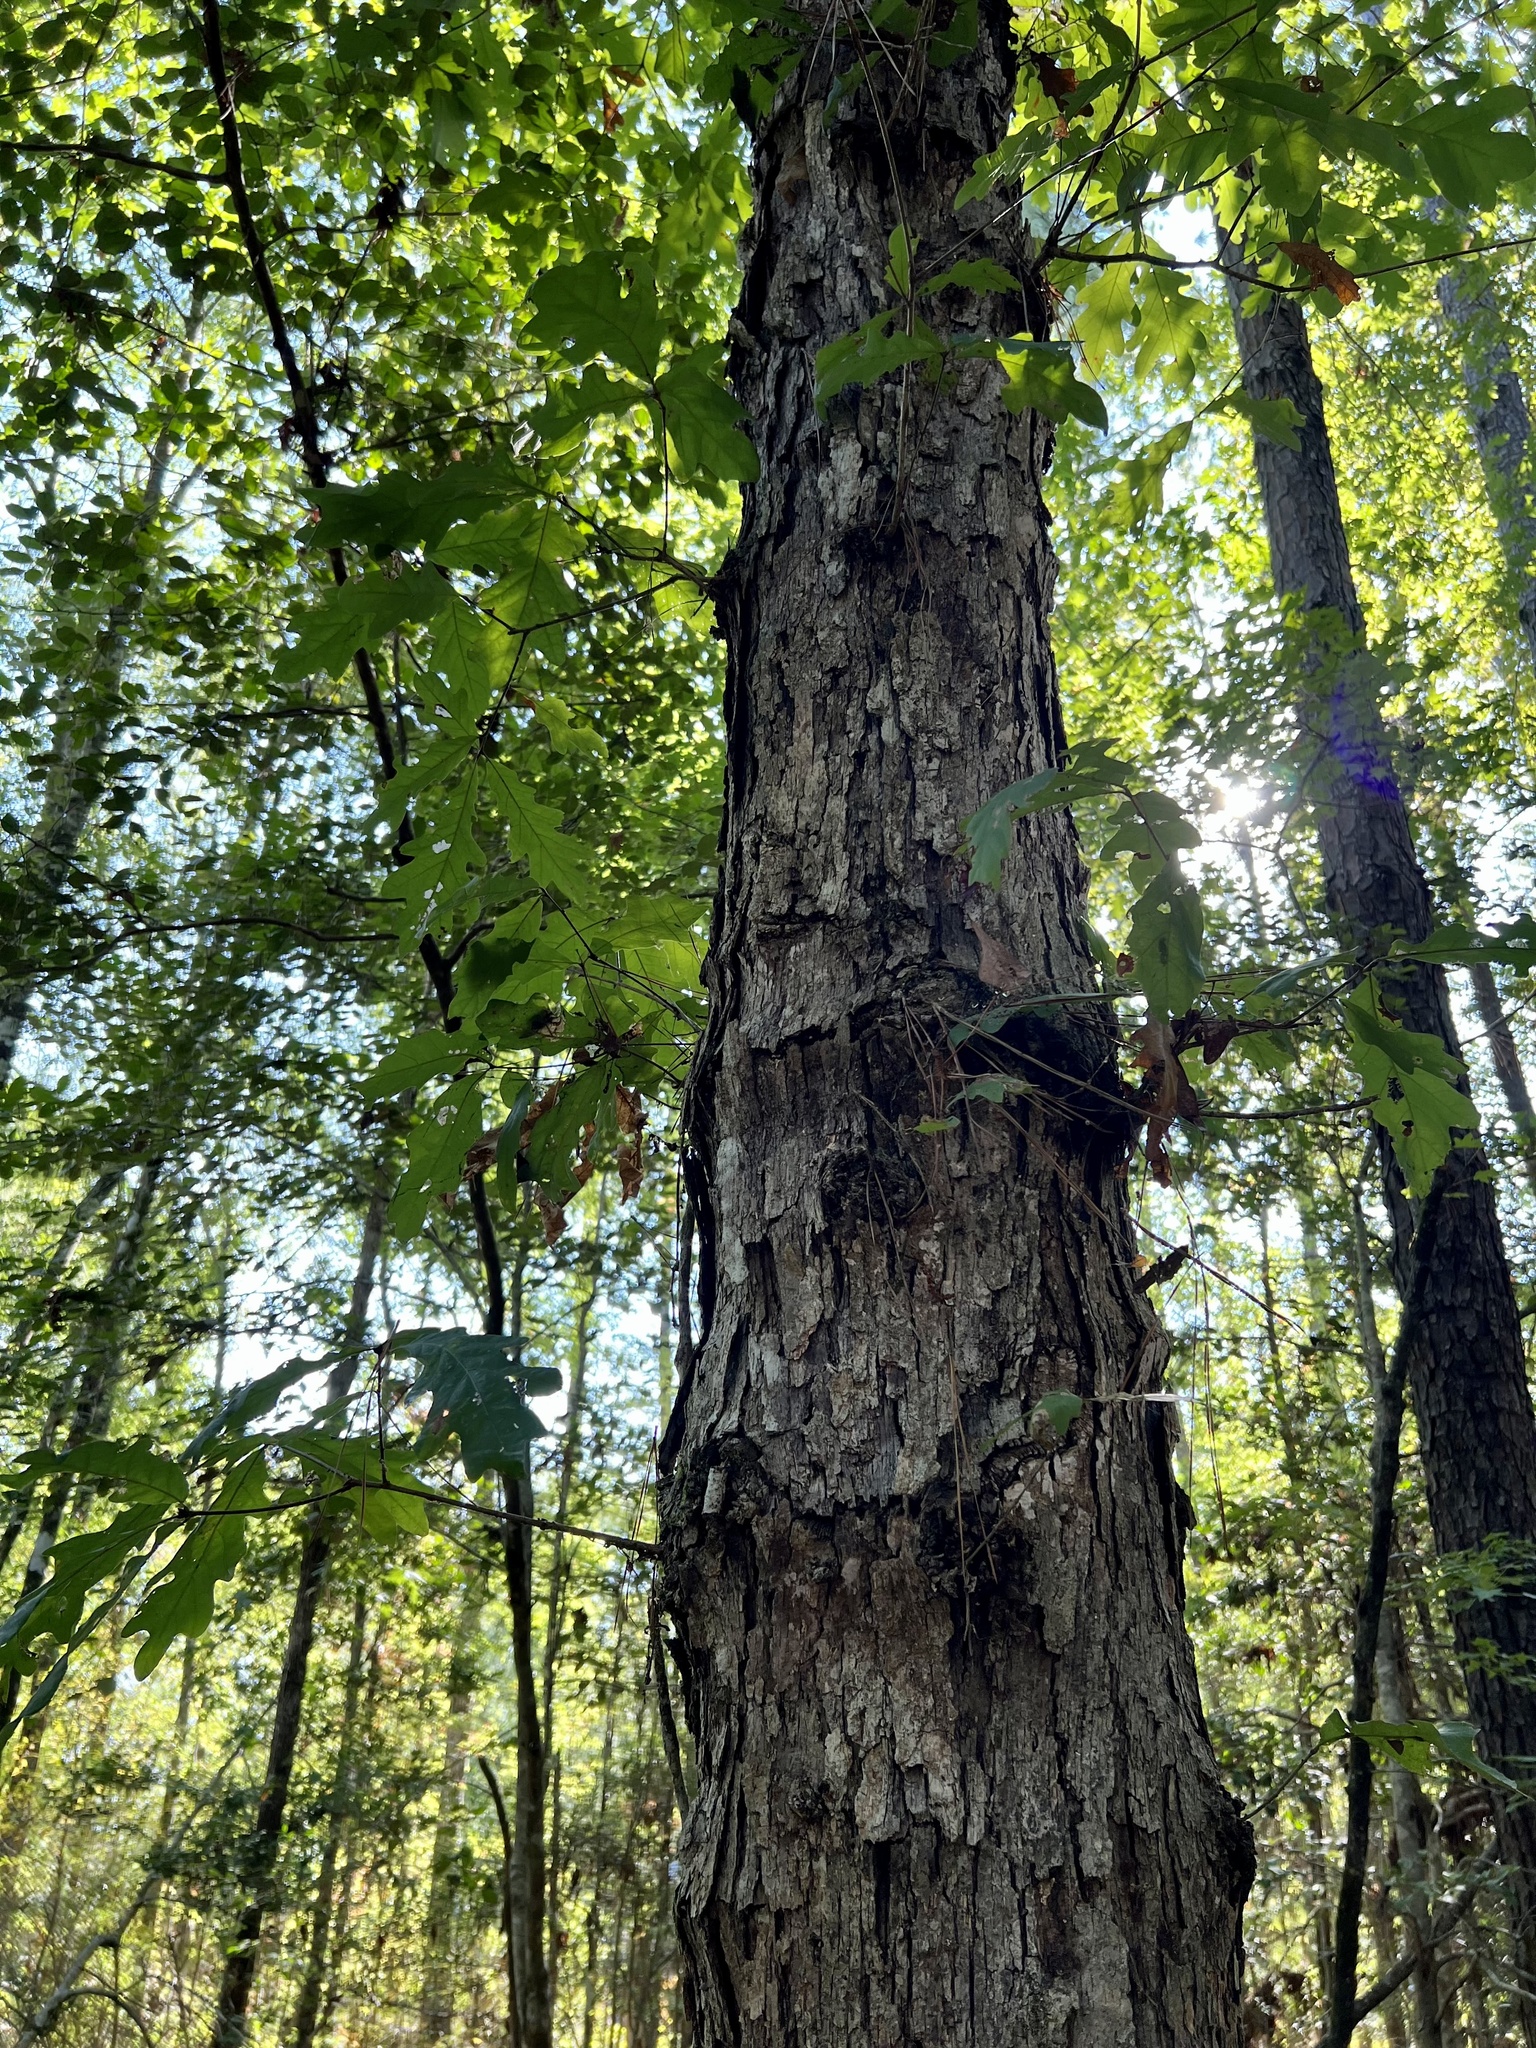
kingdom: Plantae
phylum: Tracheophyta
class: Magnoliopsida
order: Fagales
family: Fagaceae
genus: Quercus
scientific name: Quercus alba
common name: White oak
